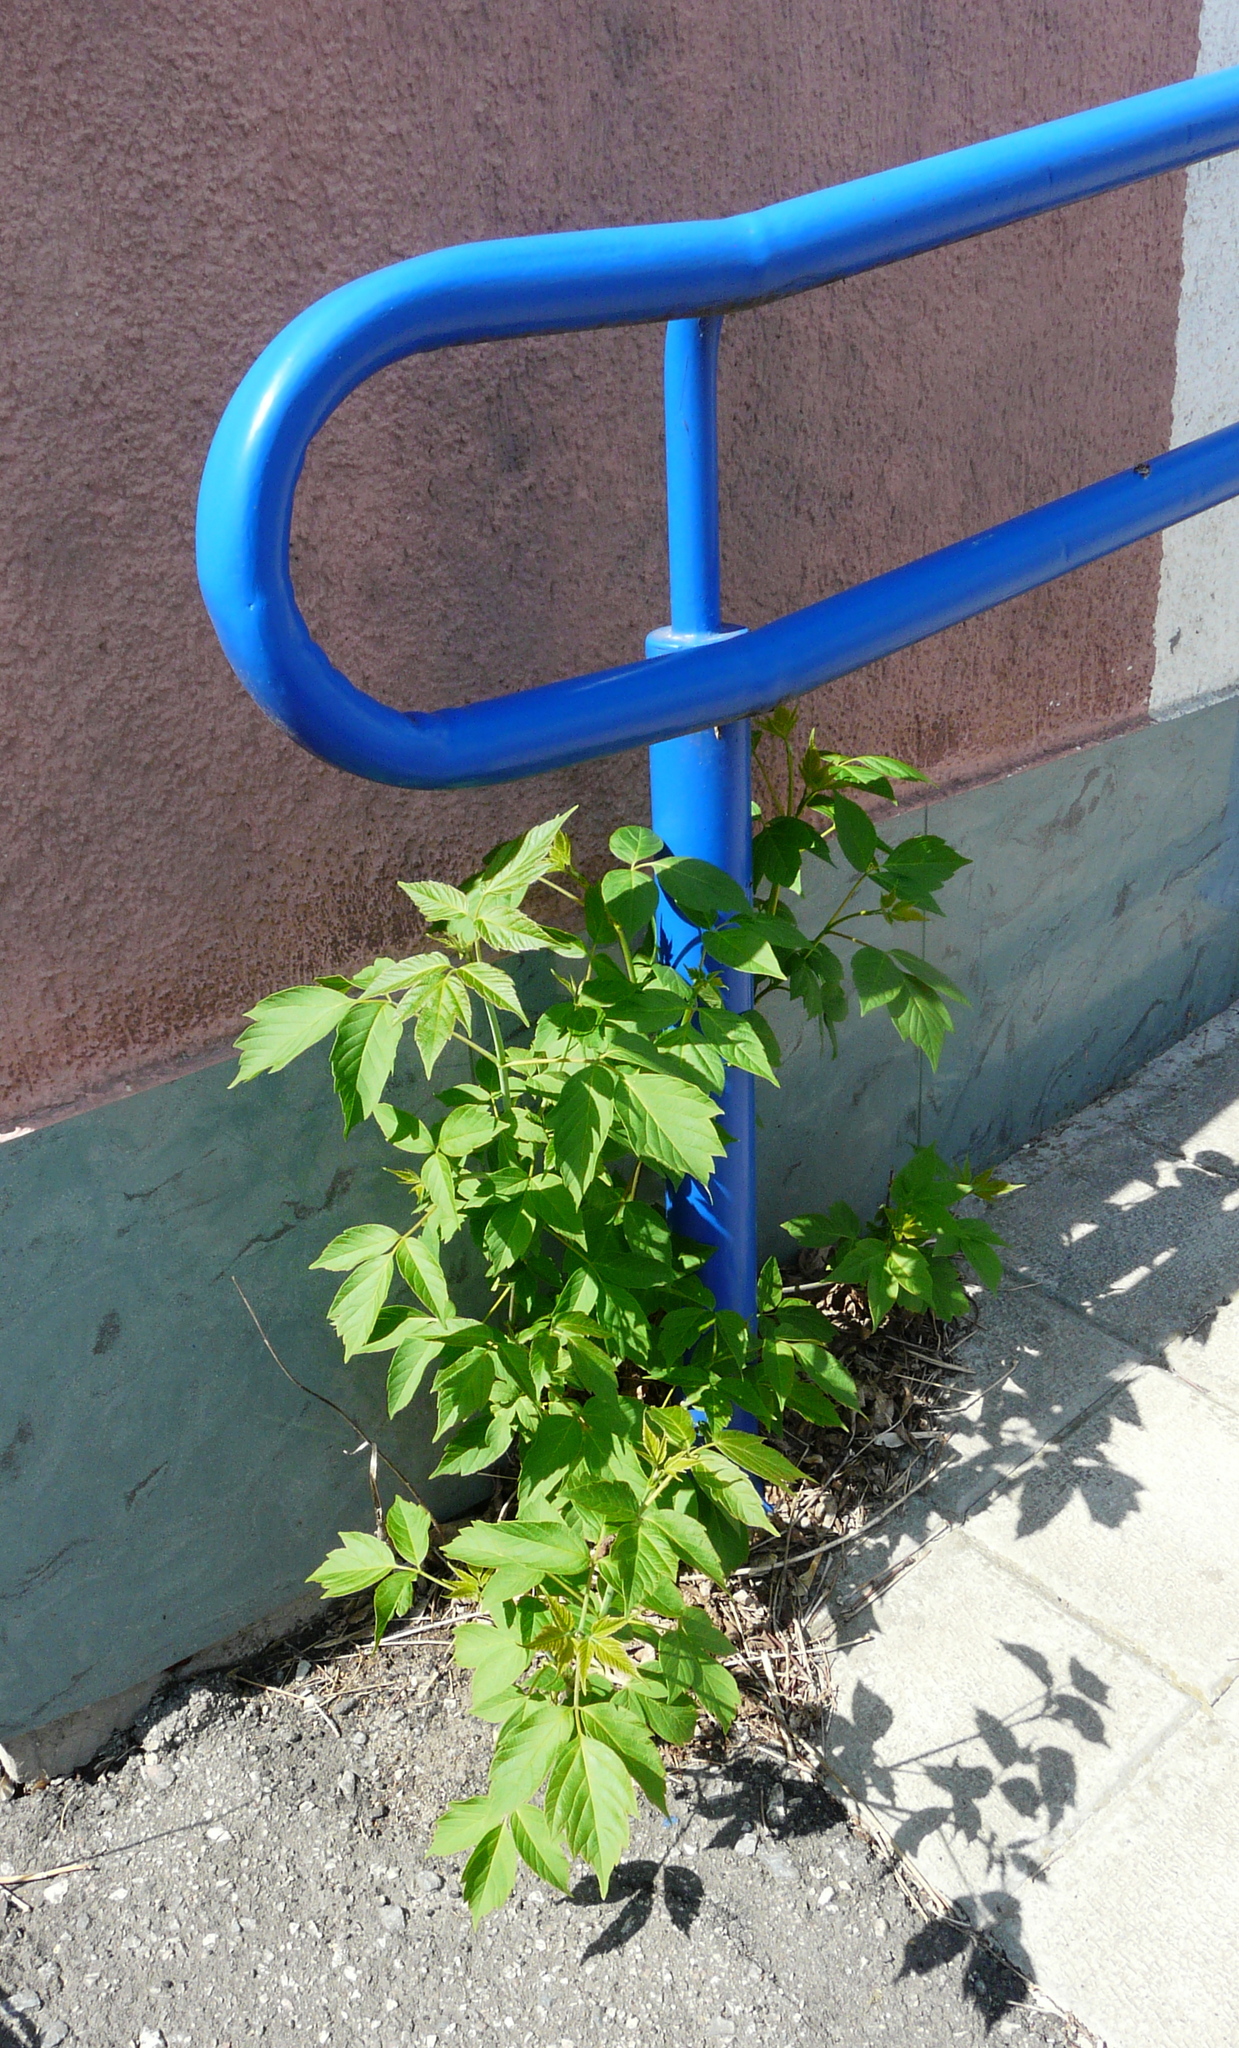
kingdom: Plantae
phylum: Tracheophyta
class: Magnoliopsida
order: Sapindales
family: Sapindaceae
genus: Acer
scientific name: Acer negundo
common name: Ashleaf maple
